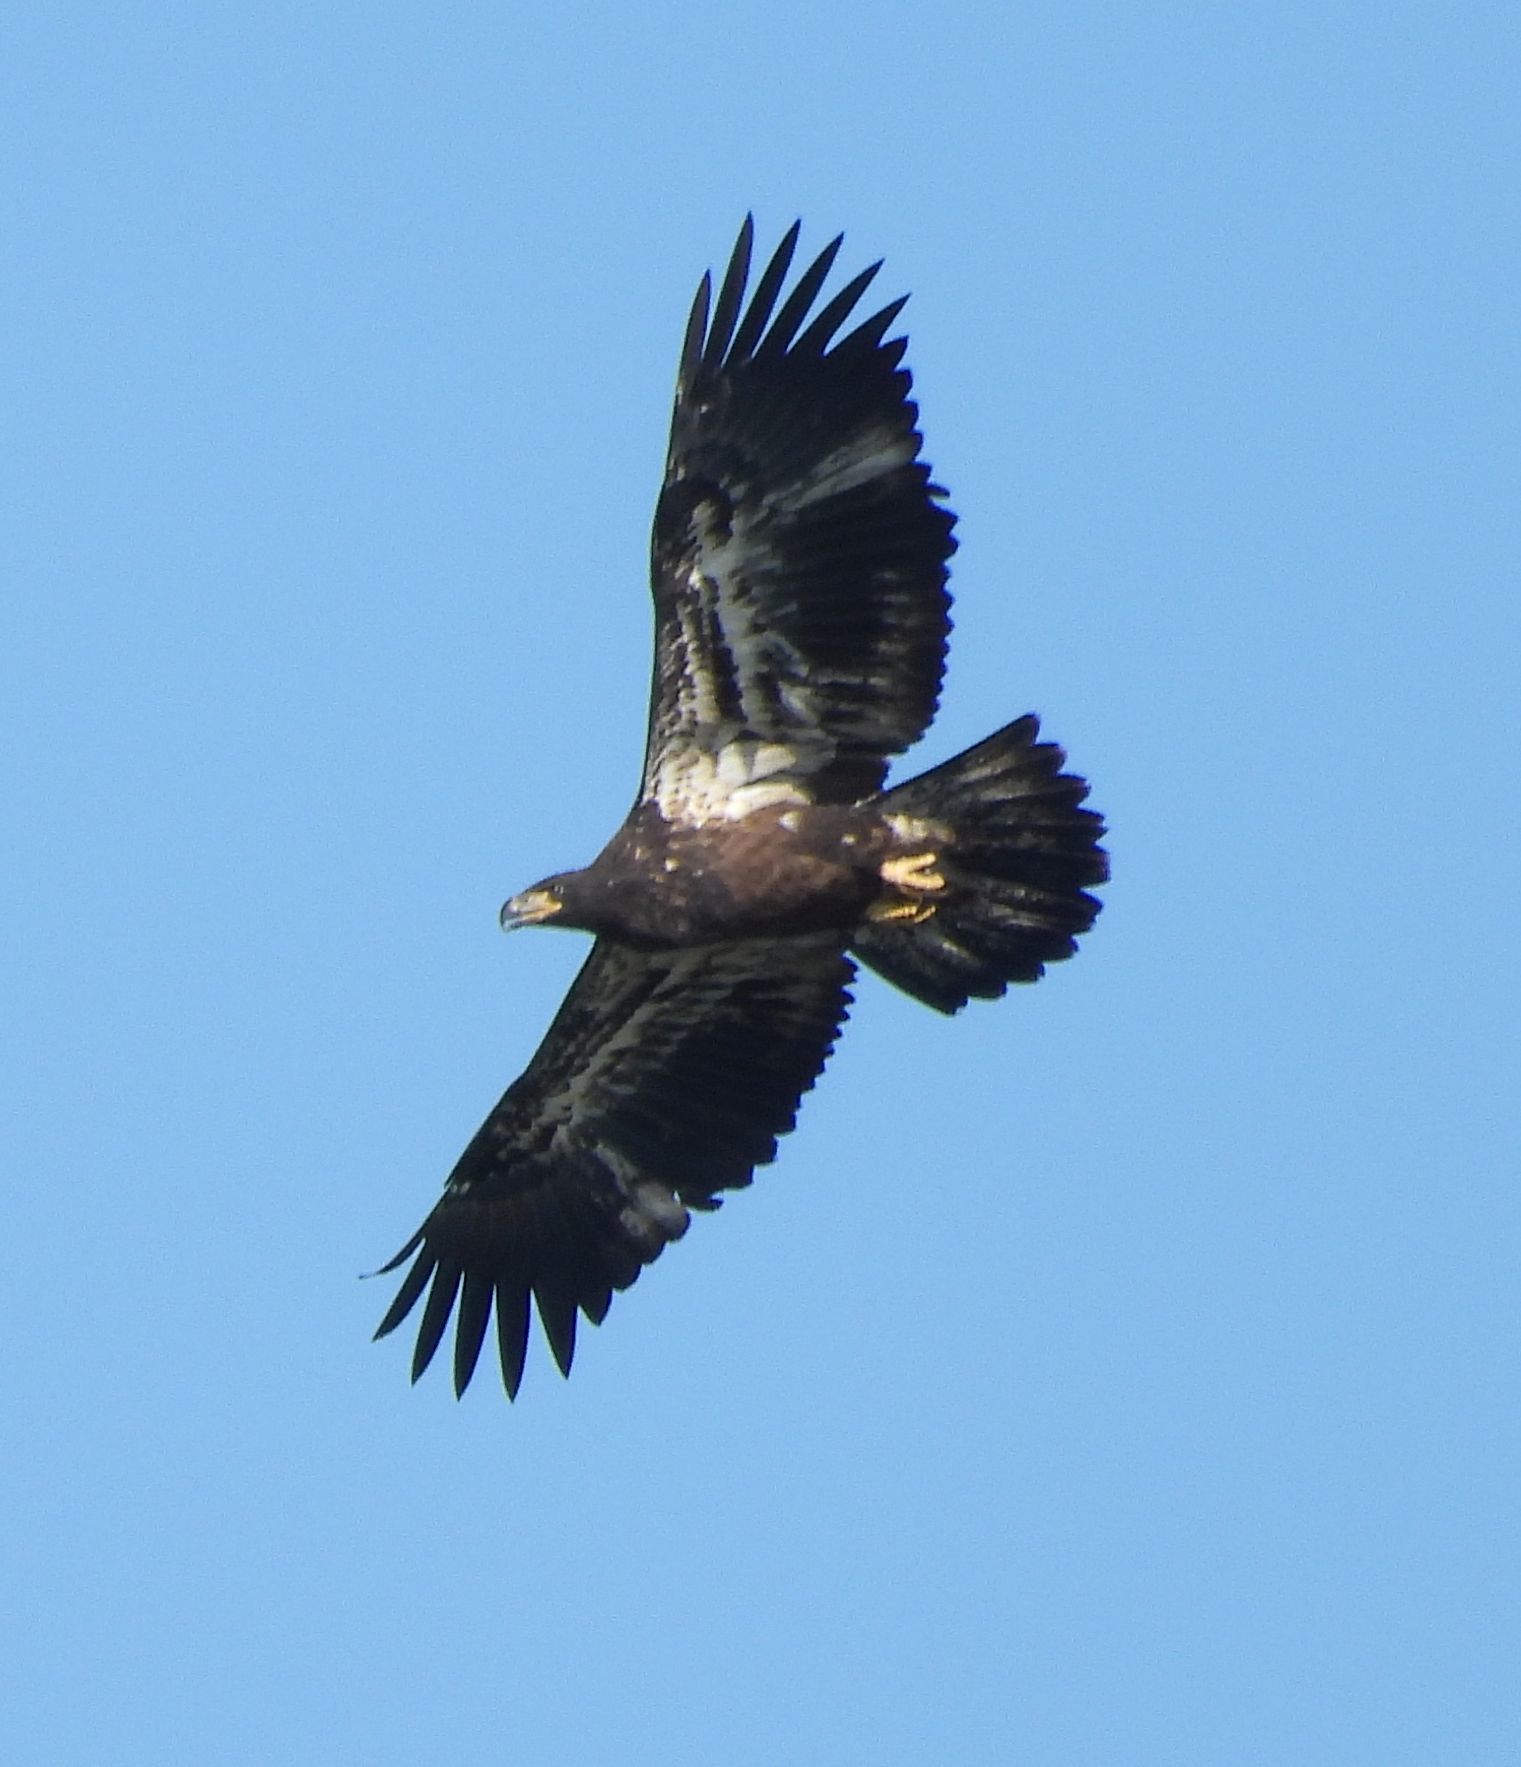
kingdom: Animalia
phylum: Chordata
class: Aves
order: Accipitriformes
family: Accipitridae
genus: Haliaeetus
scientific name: Haliaeetus leucocephalus
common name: Bald eagle
